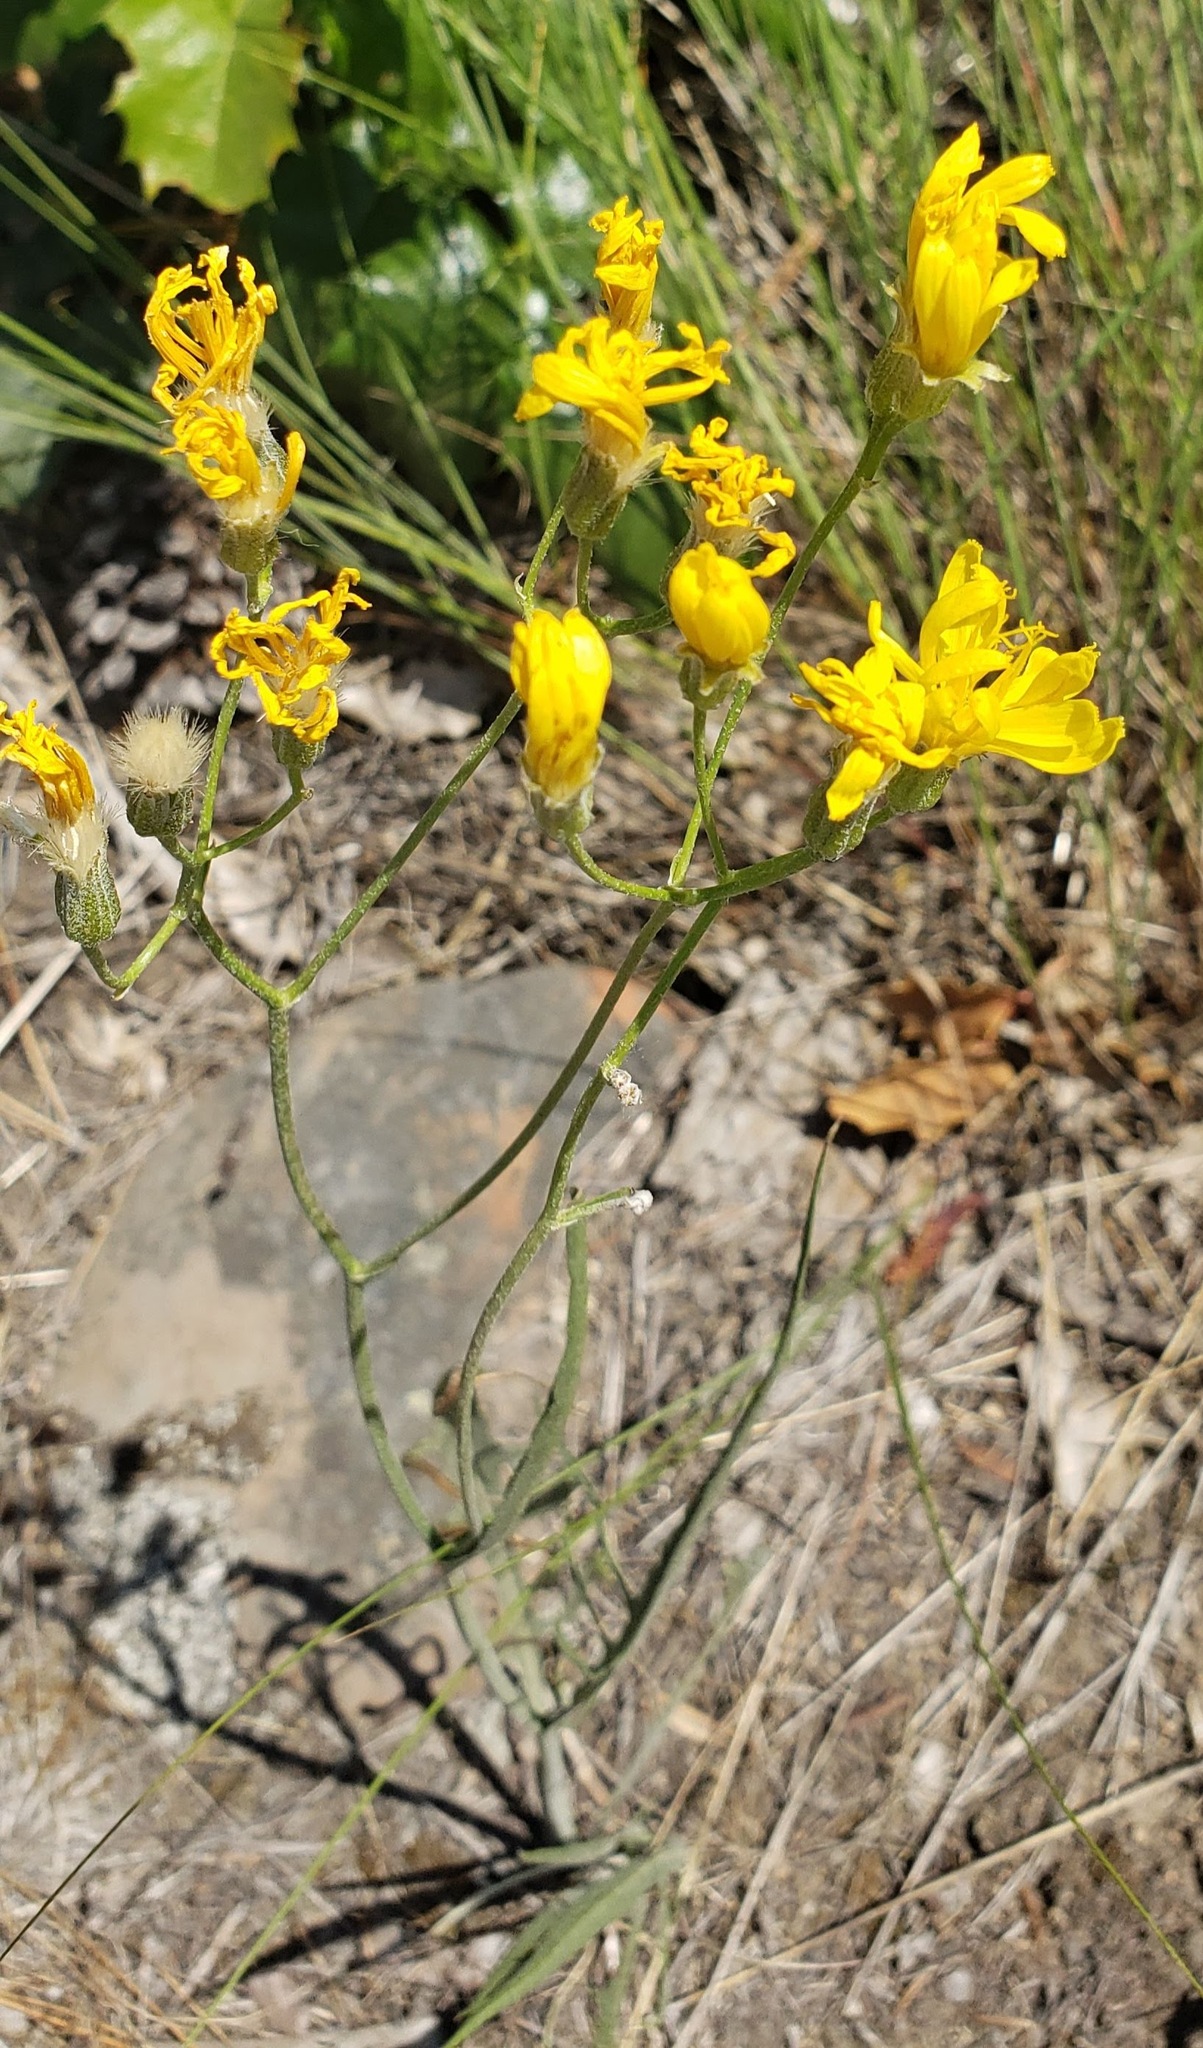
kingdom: Plantae
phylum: Tracheophyta
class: Magnoliopsida
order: Asterales
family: Asteraceae
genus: Crepis
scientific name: Crepis atribarba
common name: Dark hawk's-beard
